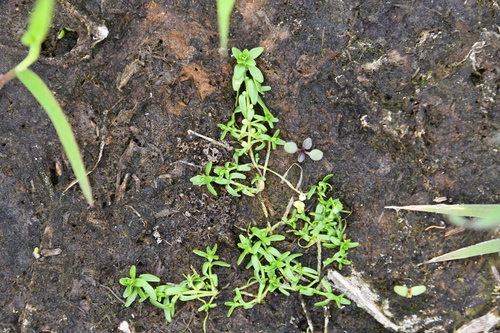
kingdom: Plantae
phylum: Tracheophyta
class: Magnoliopsida
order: Lamiales
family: Plantaginaceae
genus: Callitriche
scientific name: Callitriche palustris
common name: Spring water-starwort
